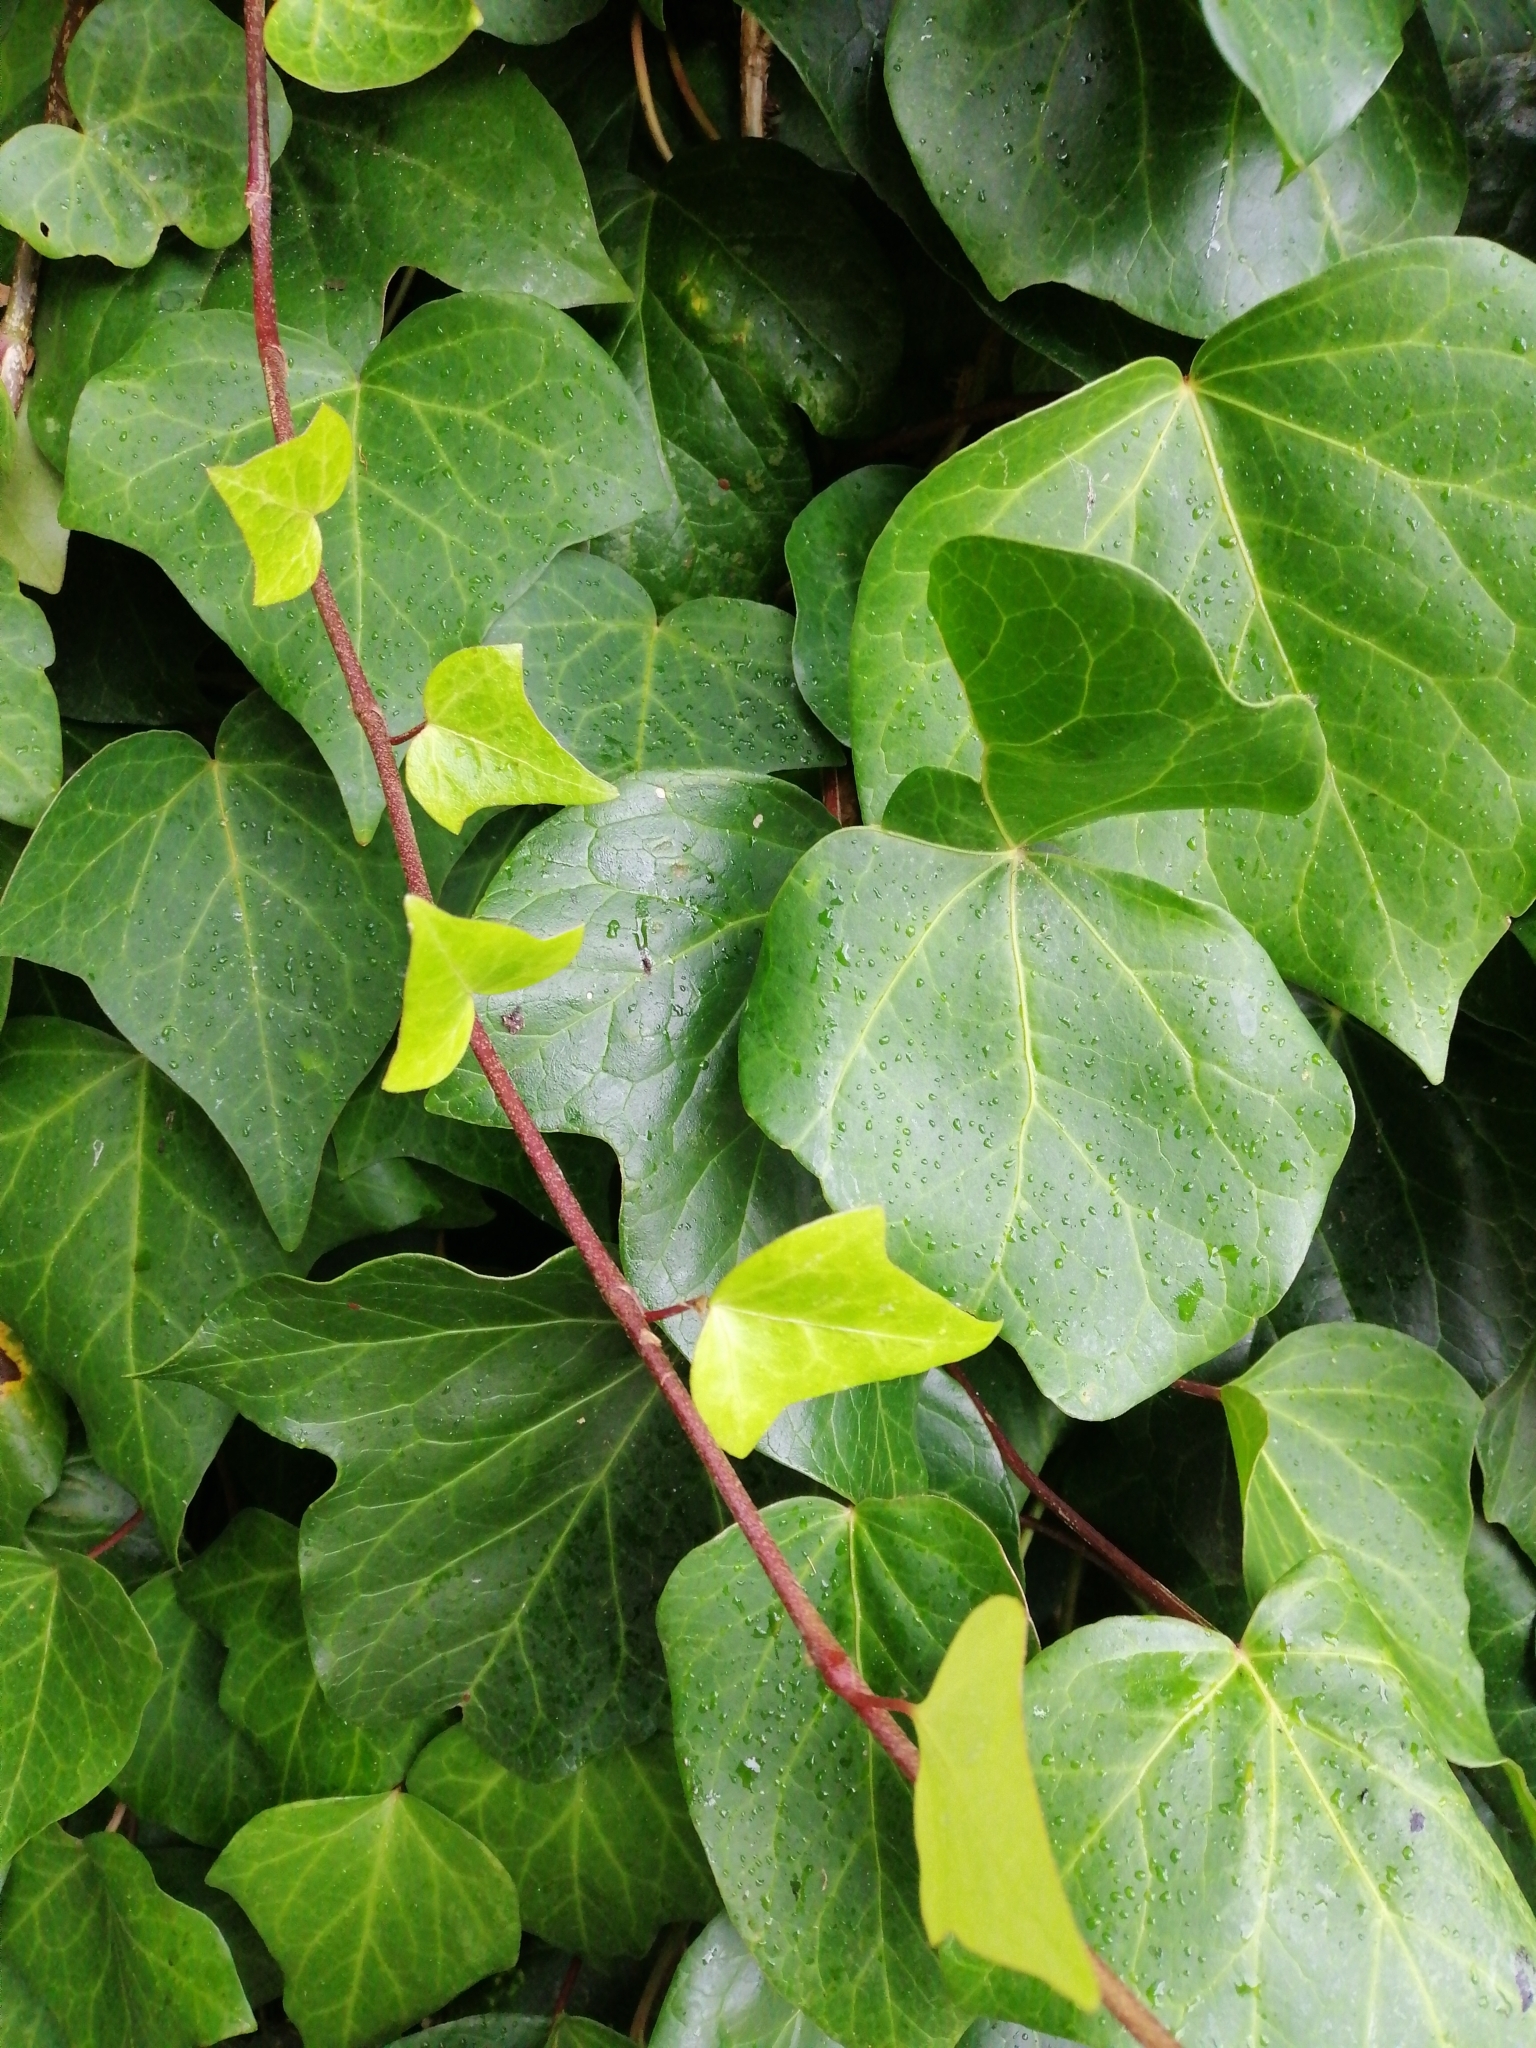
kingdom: Plantae
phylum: Tracheophyta
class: Magnoliopsida
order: Apiales
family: Araliaceae
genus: Hedera
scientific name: Hedera canariensis
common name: Madeira ivy
